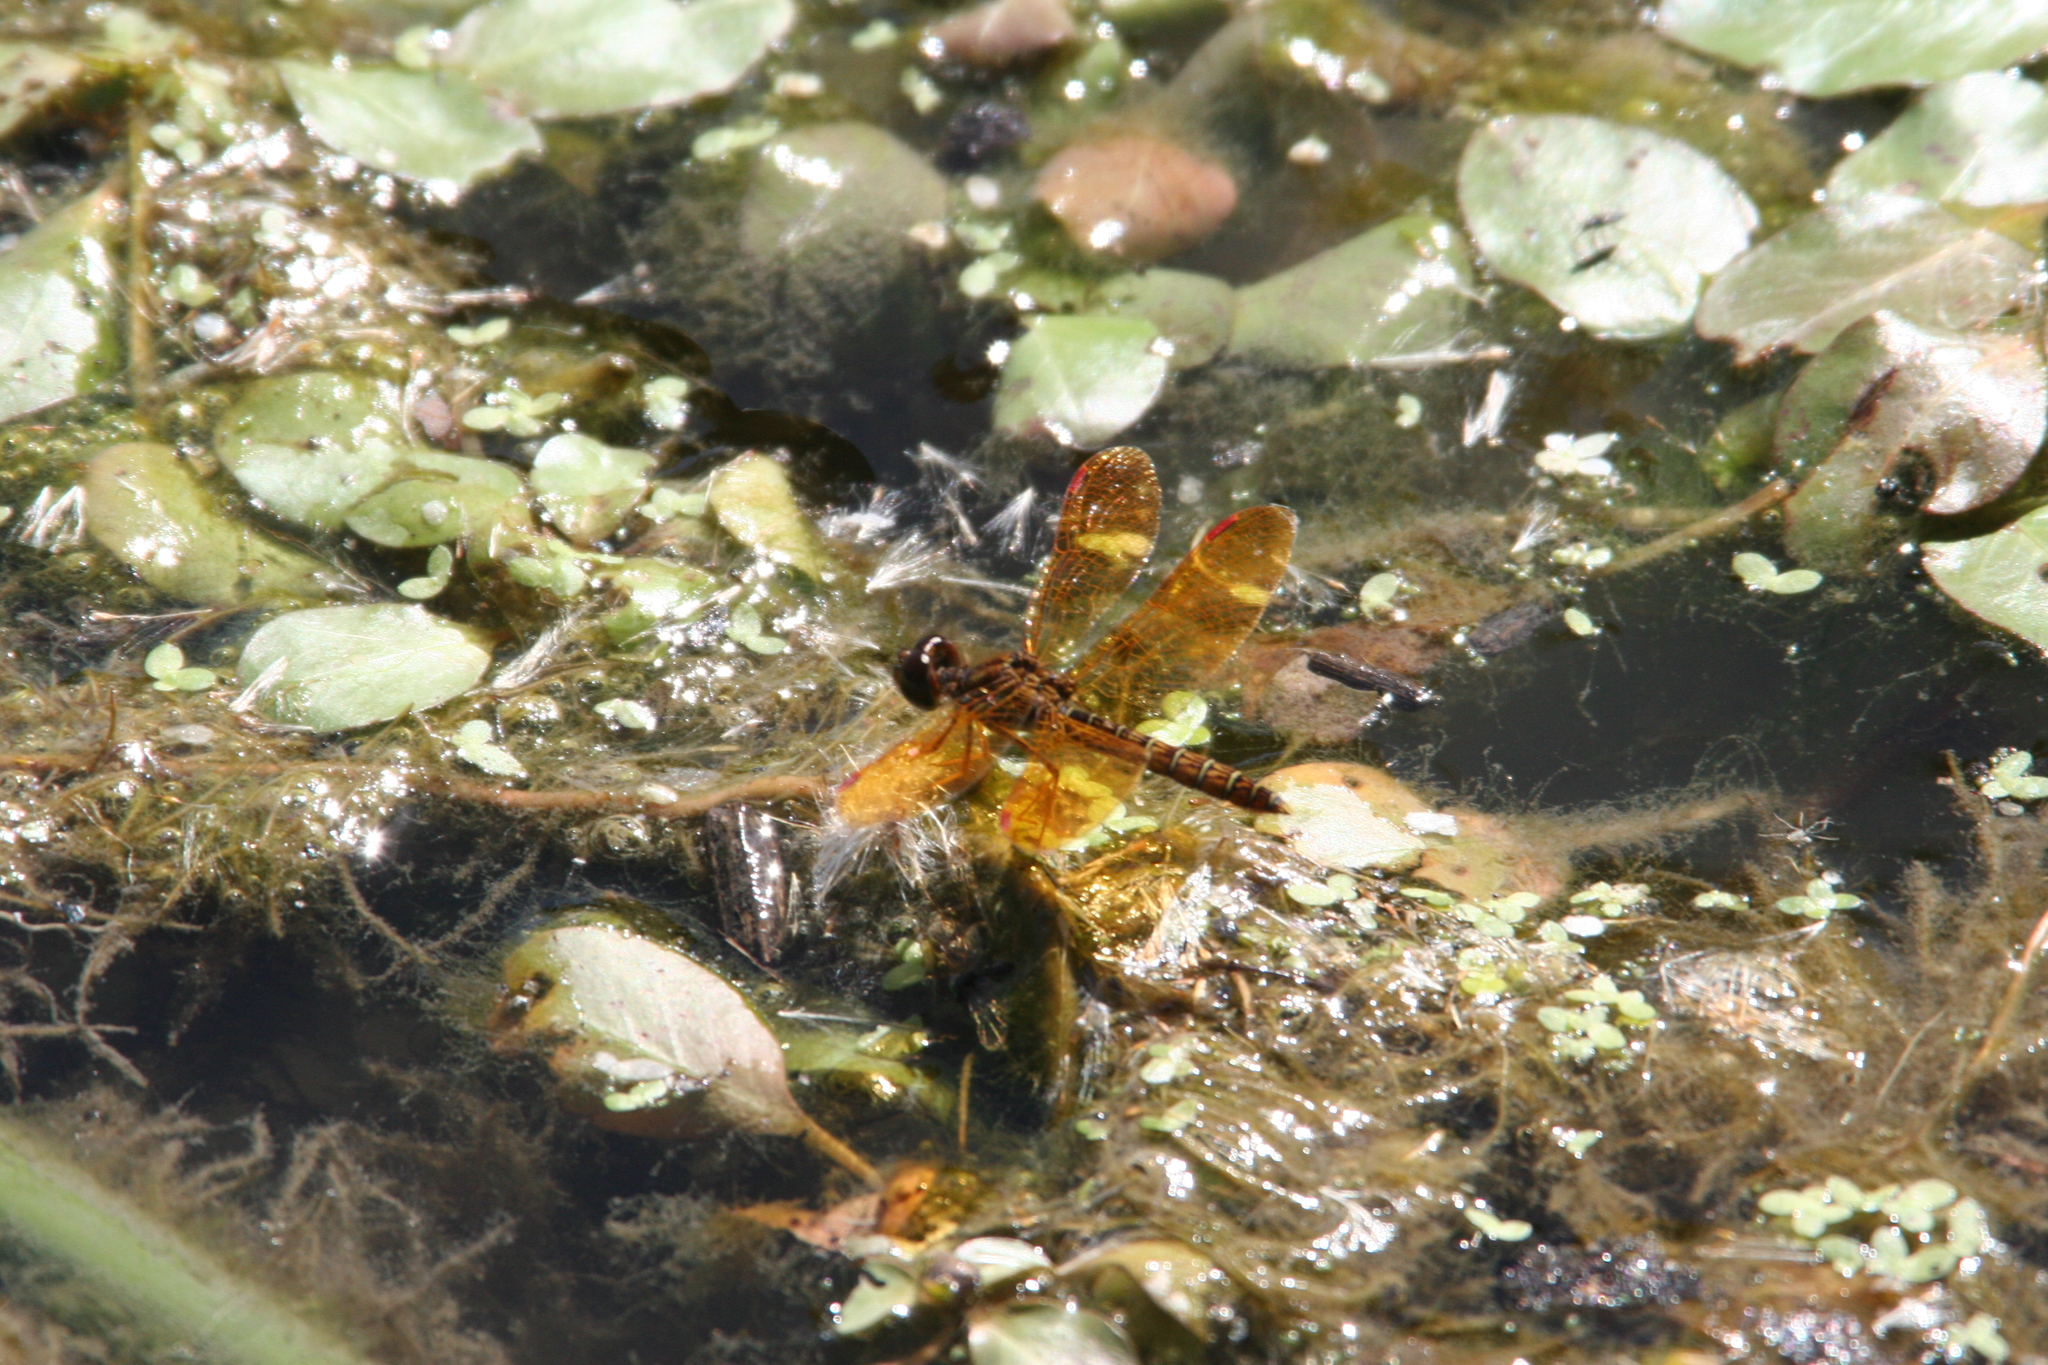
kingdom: Animalia
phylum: Arthropoda
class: Insecta
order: Odonata
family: Libellulidae
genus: Perithemis
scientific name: Perithemis tenera
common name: Eastern amberwing
